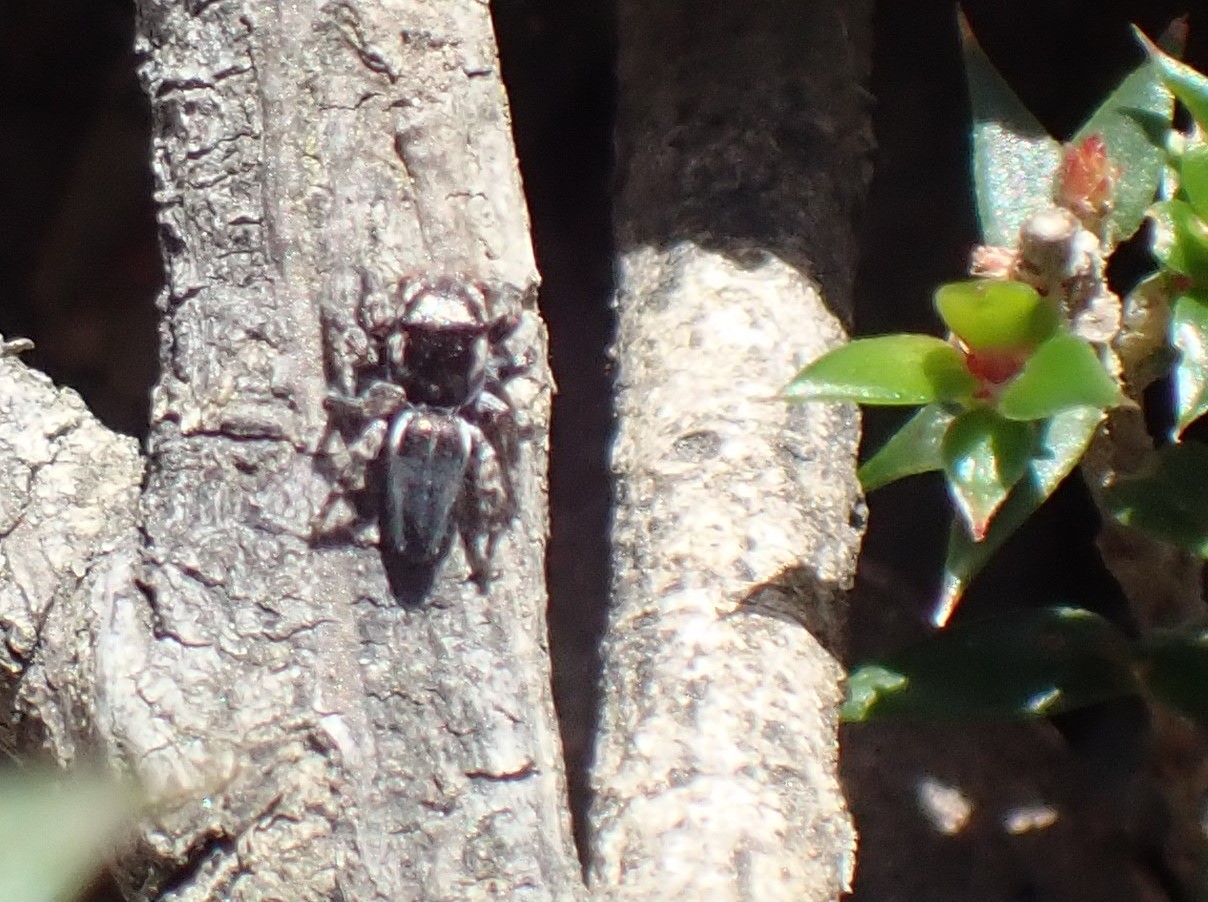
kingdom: Animalia
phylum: Arthropoda
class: Arachnida
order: Araneae
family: Salticidae
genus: Maratus
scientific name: Maratus proszynskii
